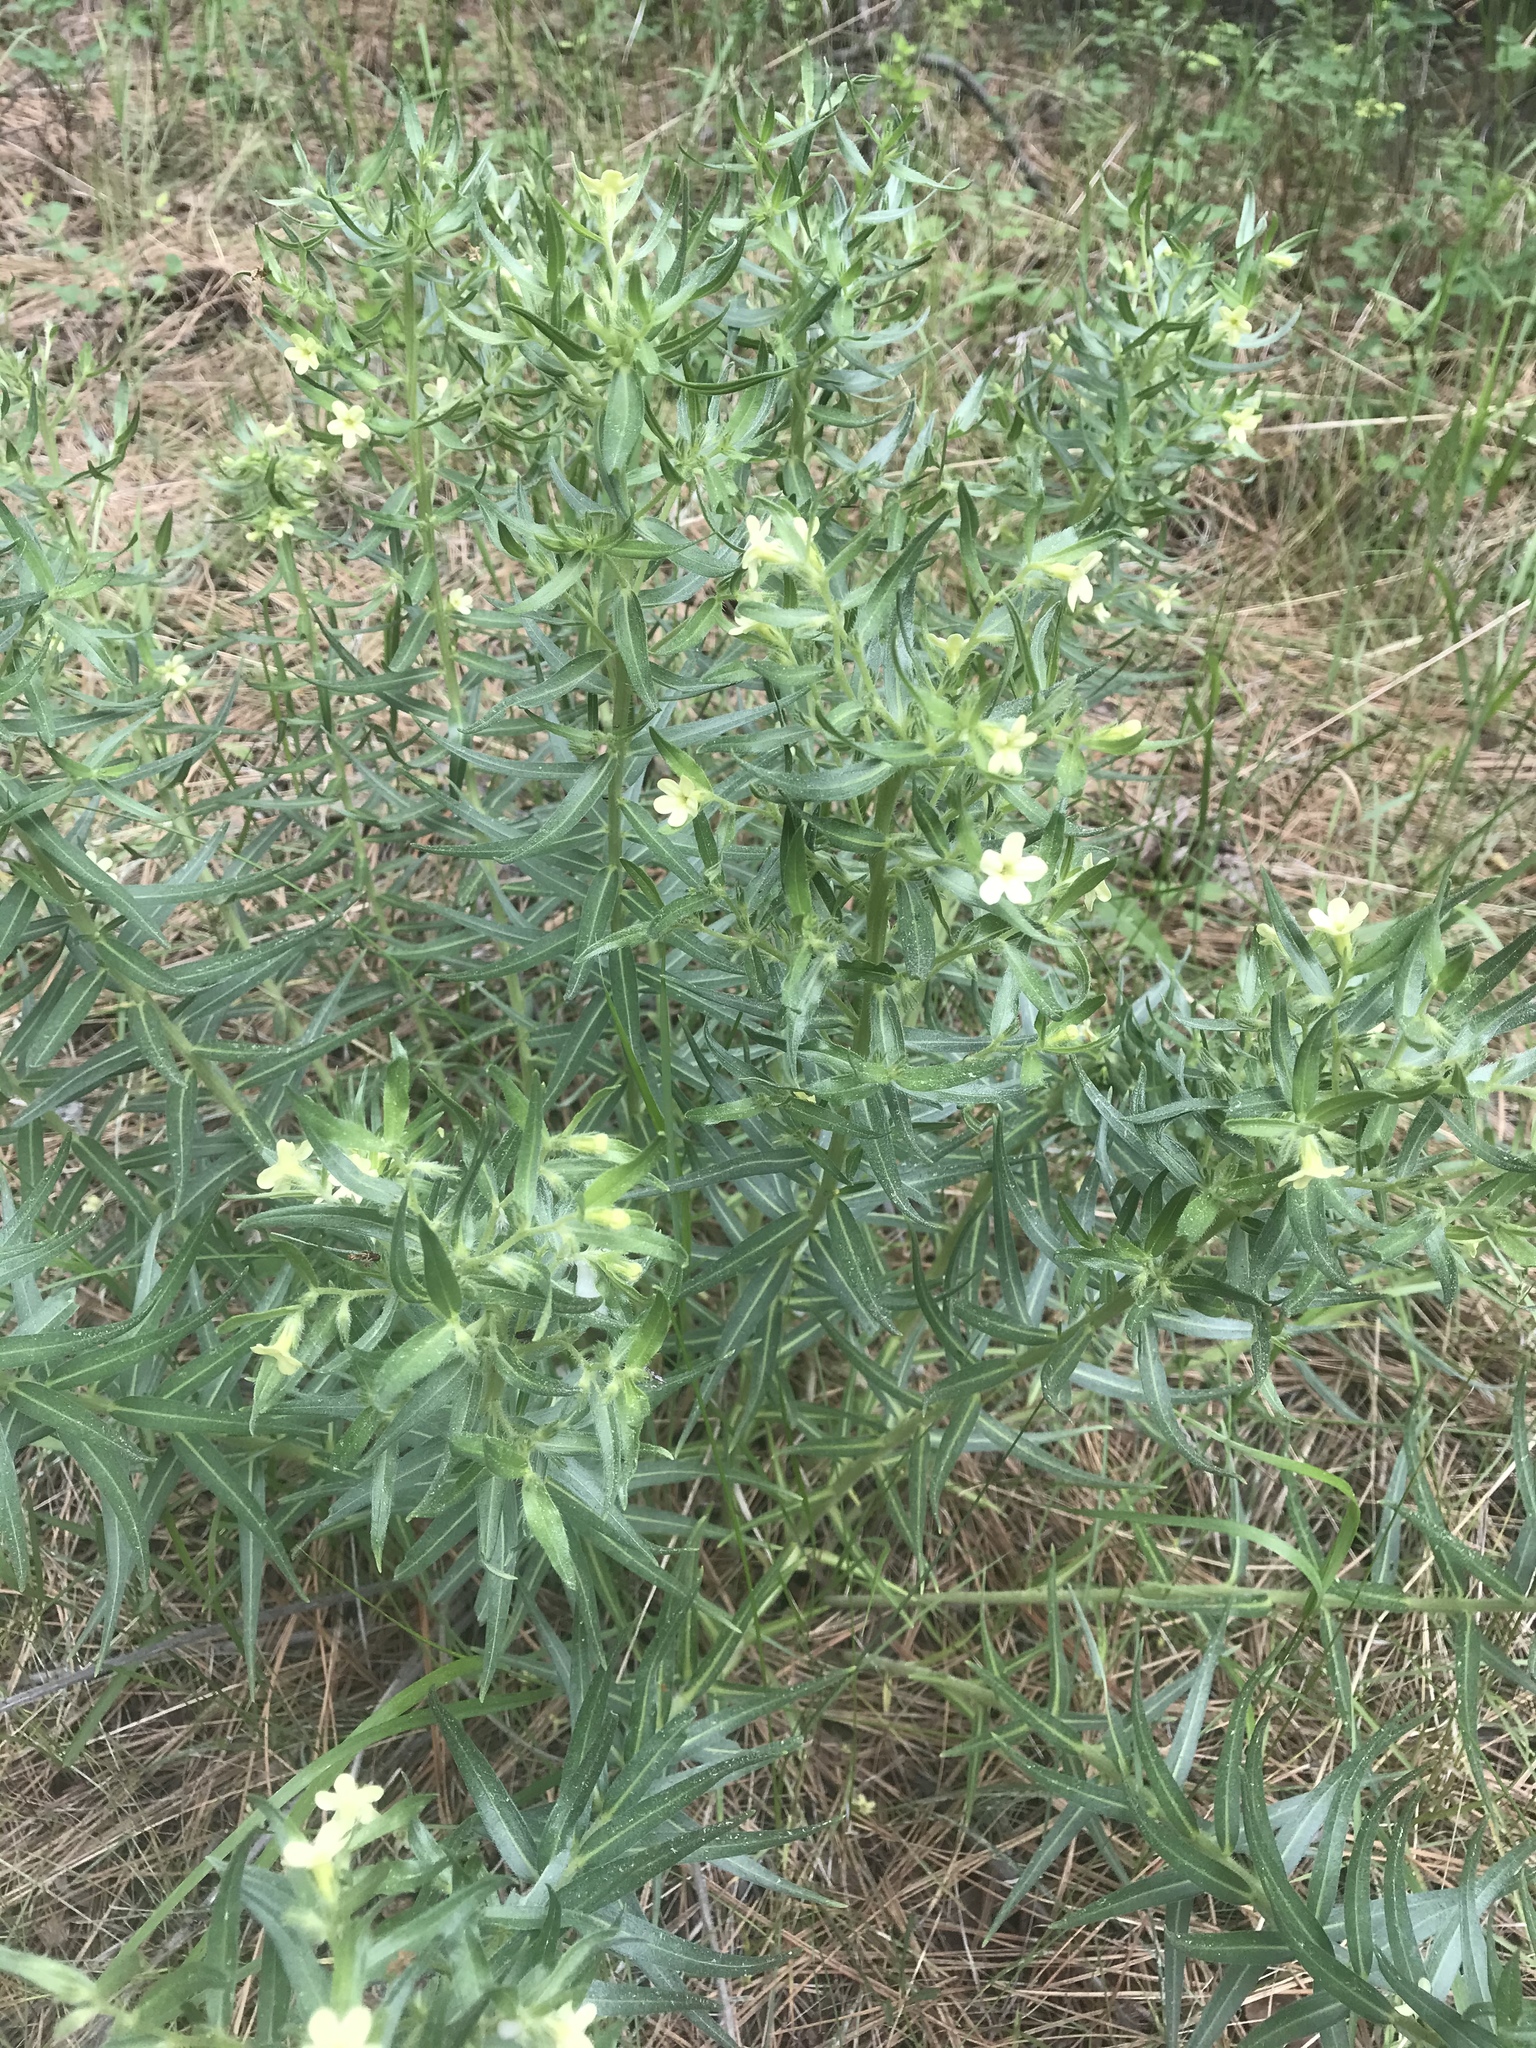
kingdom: Plantae
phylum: Tracheophyta
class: Magnoliopsida
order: Boraginales
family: Boraginaceae
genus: Lithospermum
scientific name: Lithospermum ruderale
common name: Western gromwell
